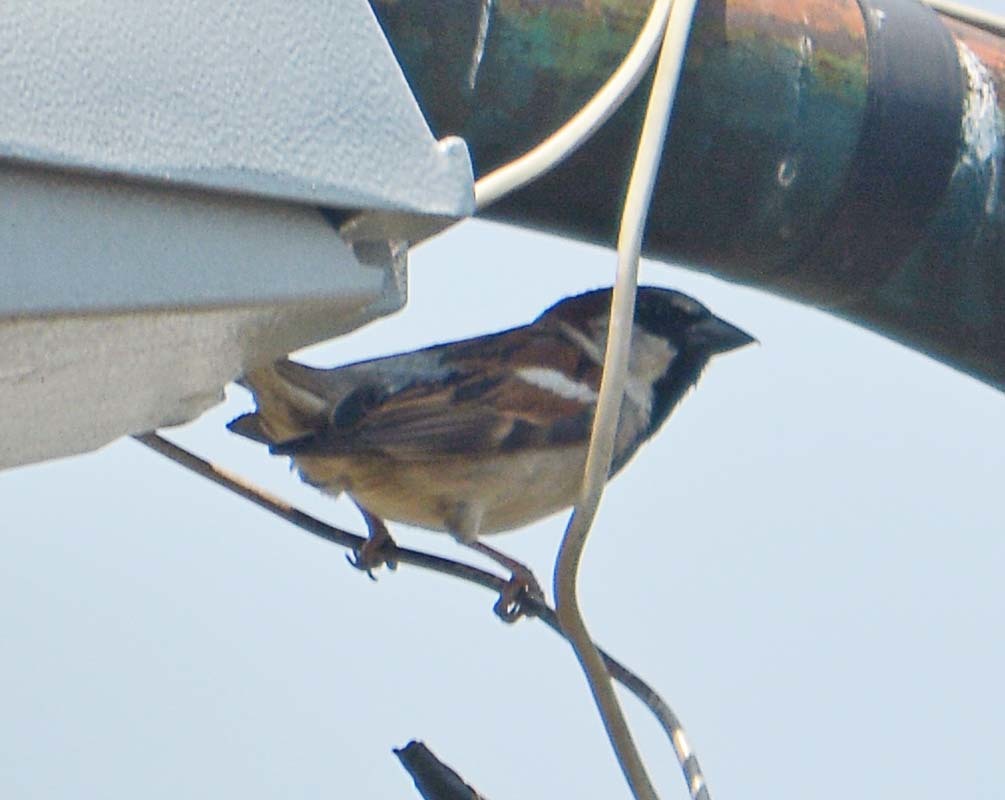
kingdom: Animalia
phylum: Chordata
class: Aves
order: Passeriformes
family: Passeridae
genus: Passer
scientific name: Passer domesticus
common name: House sparrow
